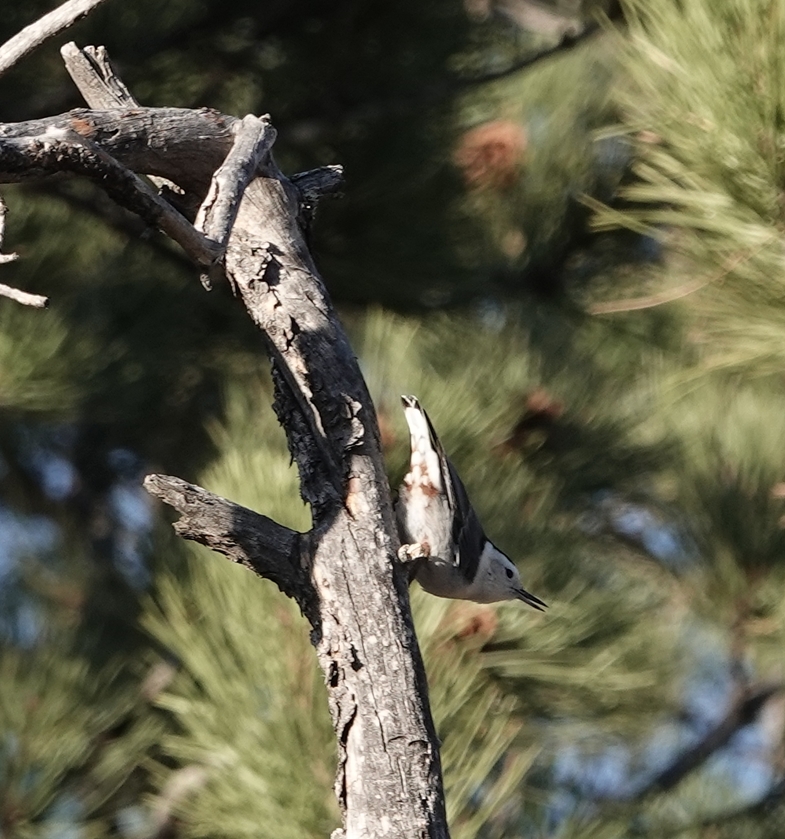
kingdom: Animalia
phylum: Chordata
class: Aves
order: Passeriformes
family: Sittidae
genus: Sitta
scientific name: Sitta carolinensis
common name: White-breasted nuthatch
